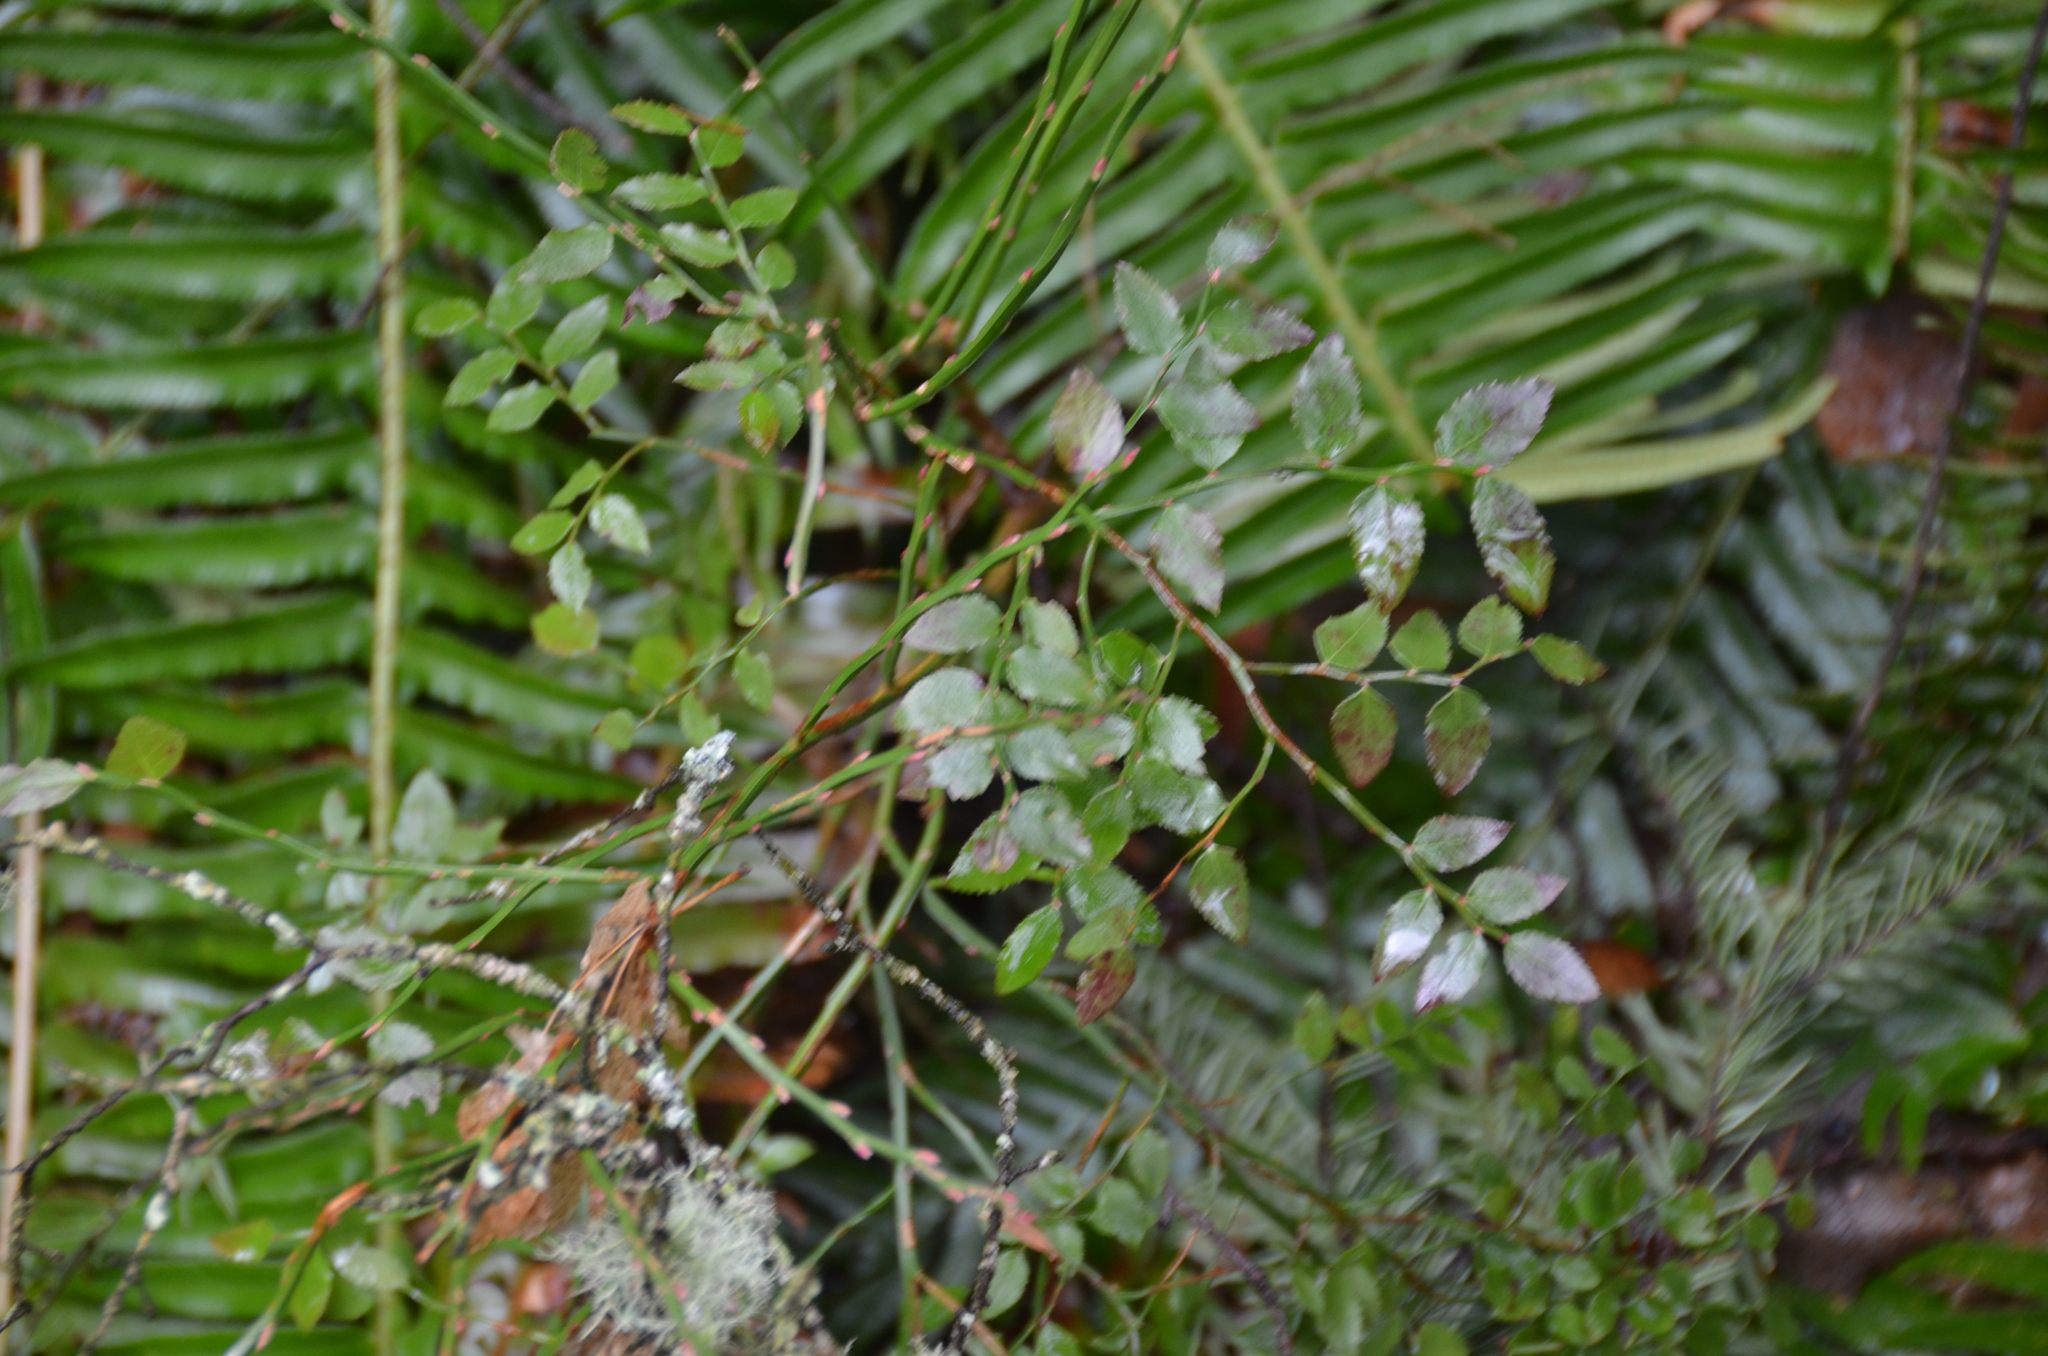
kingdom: Plantae
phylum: Tracheophyta
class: Magnoliopsida
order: Ericales
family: Ericaceae
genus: Vaccinium
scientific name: Vaccinium parvifolium
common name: Red-huckleberry
